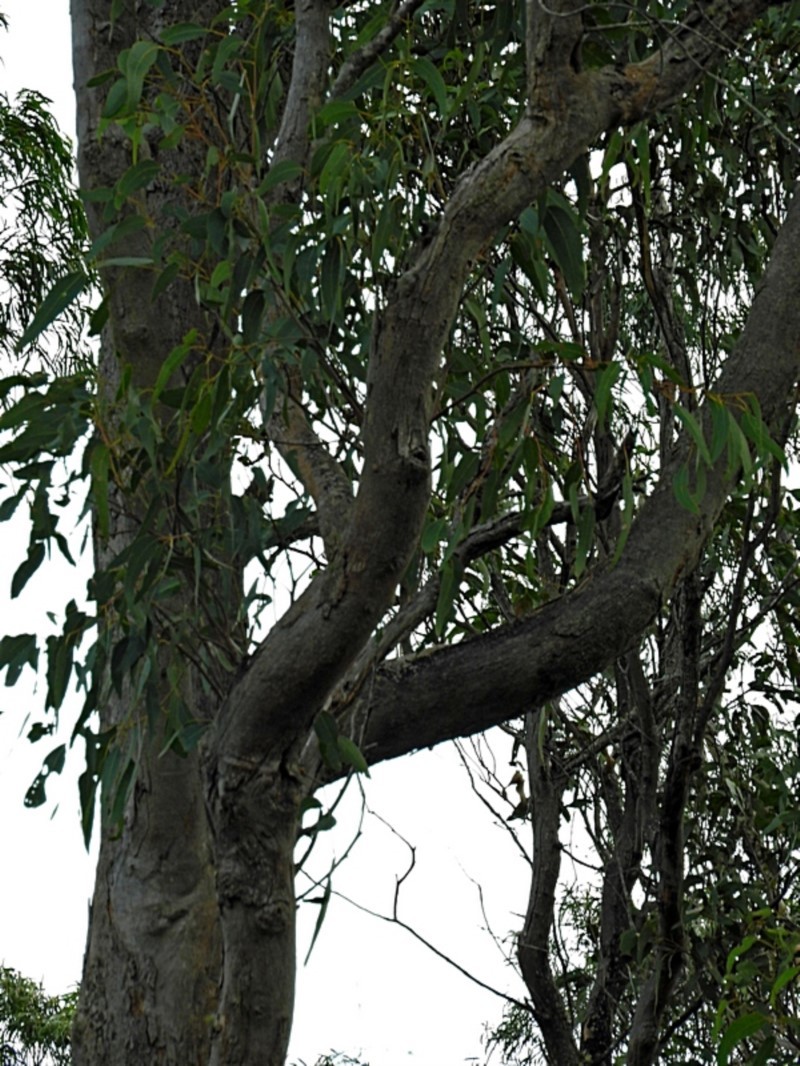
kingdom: Plantae
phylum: Tracheophyta
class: Magnoliopsida
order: Myrtales
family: Myrtaceae
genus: Eucalyptus
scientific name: Eucalyptus angophoroides
